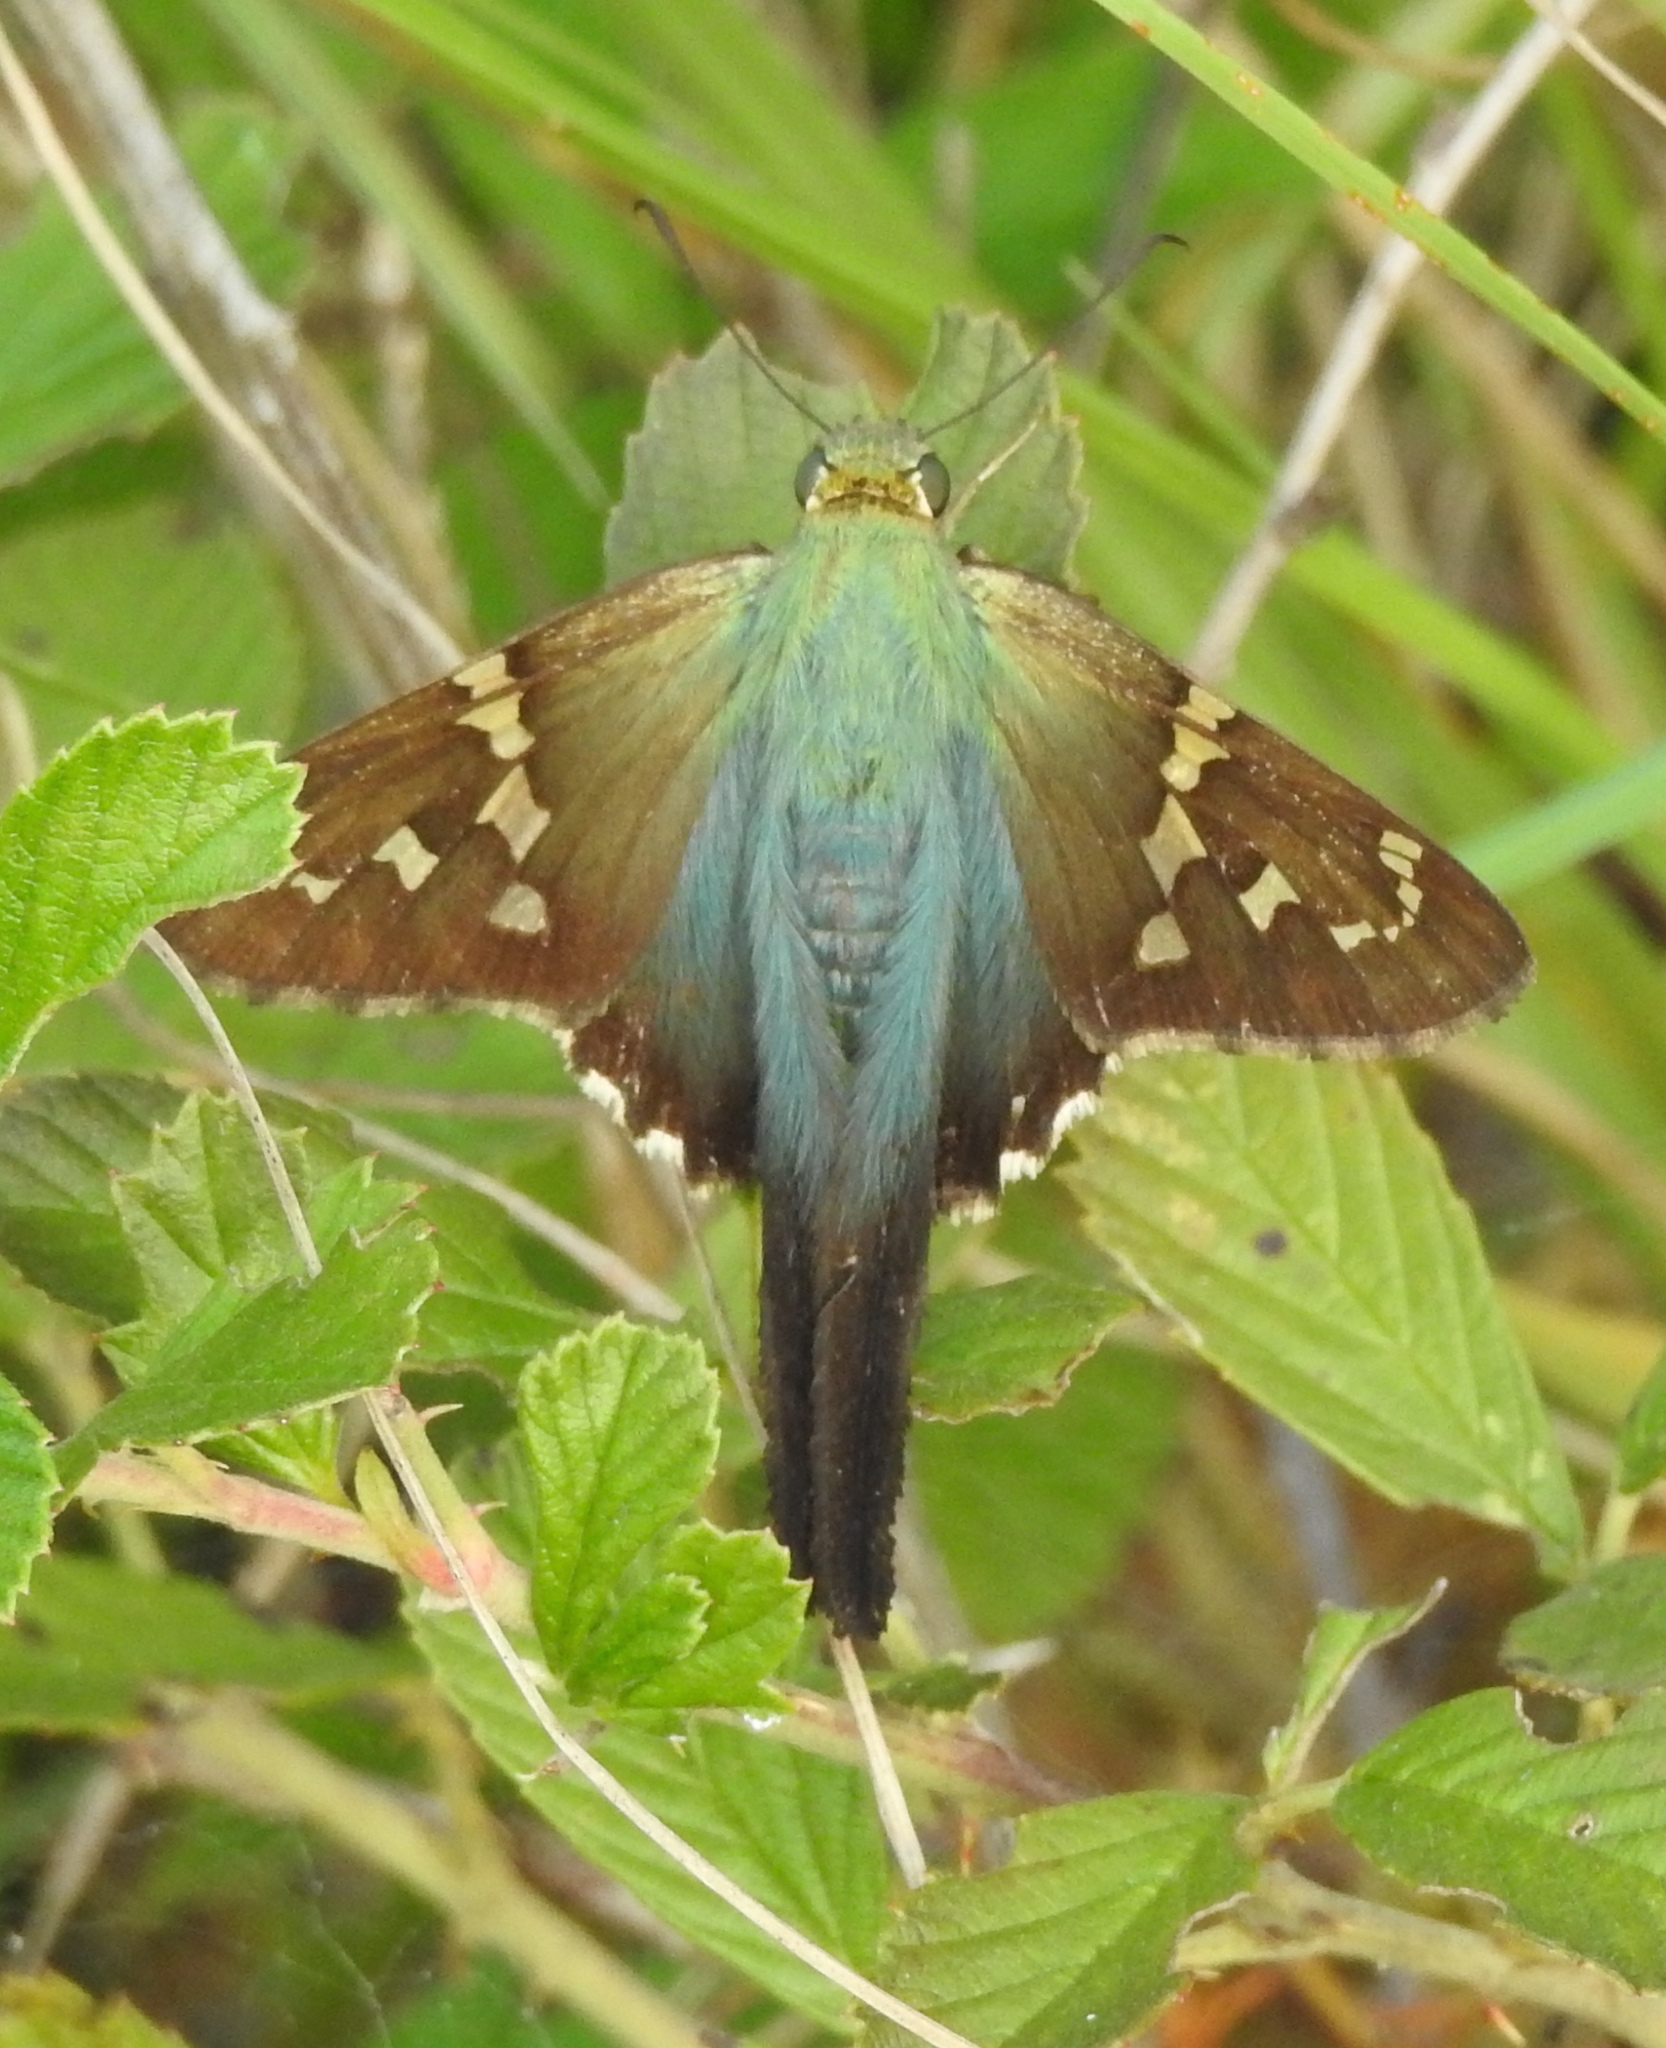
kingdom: Animalia
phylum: Arthropoda
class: Insecta
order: Lepidoptera
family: Hesperiidae
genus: Urbanus
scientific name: Urbanus proteus
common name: Long-tailed skipper
